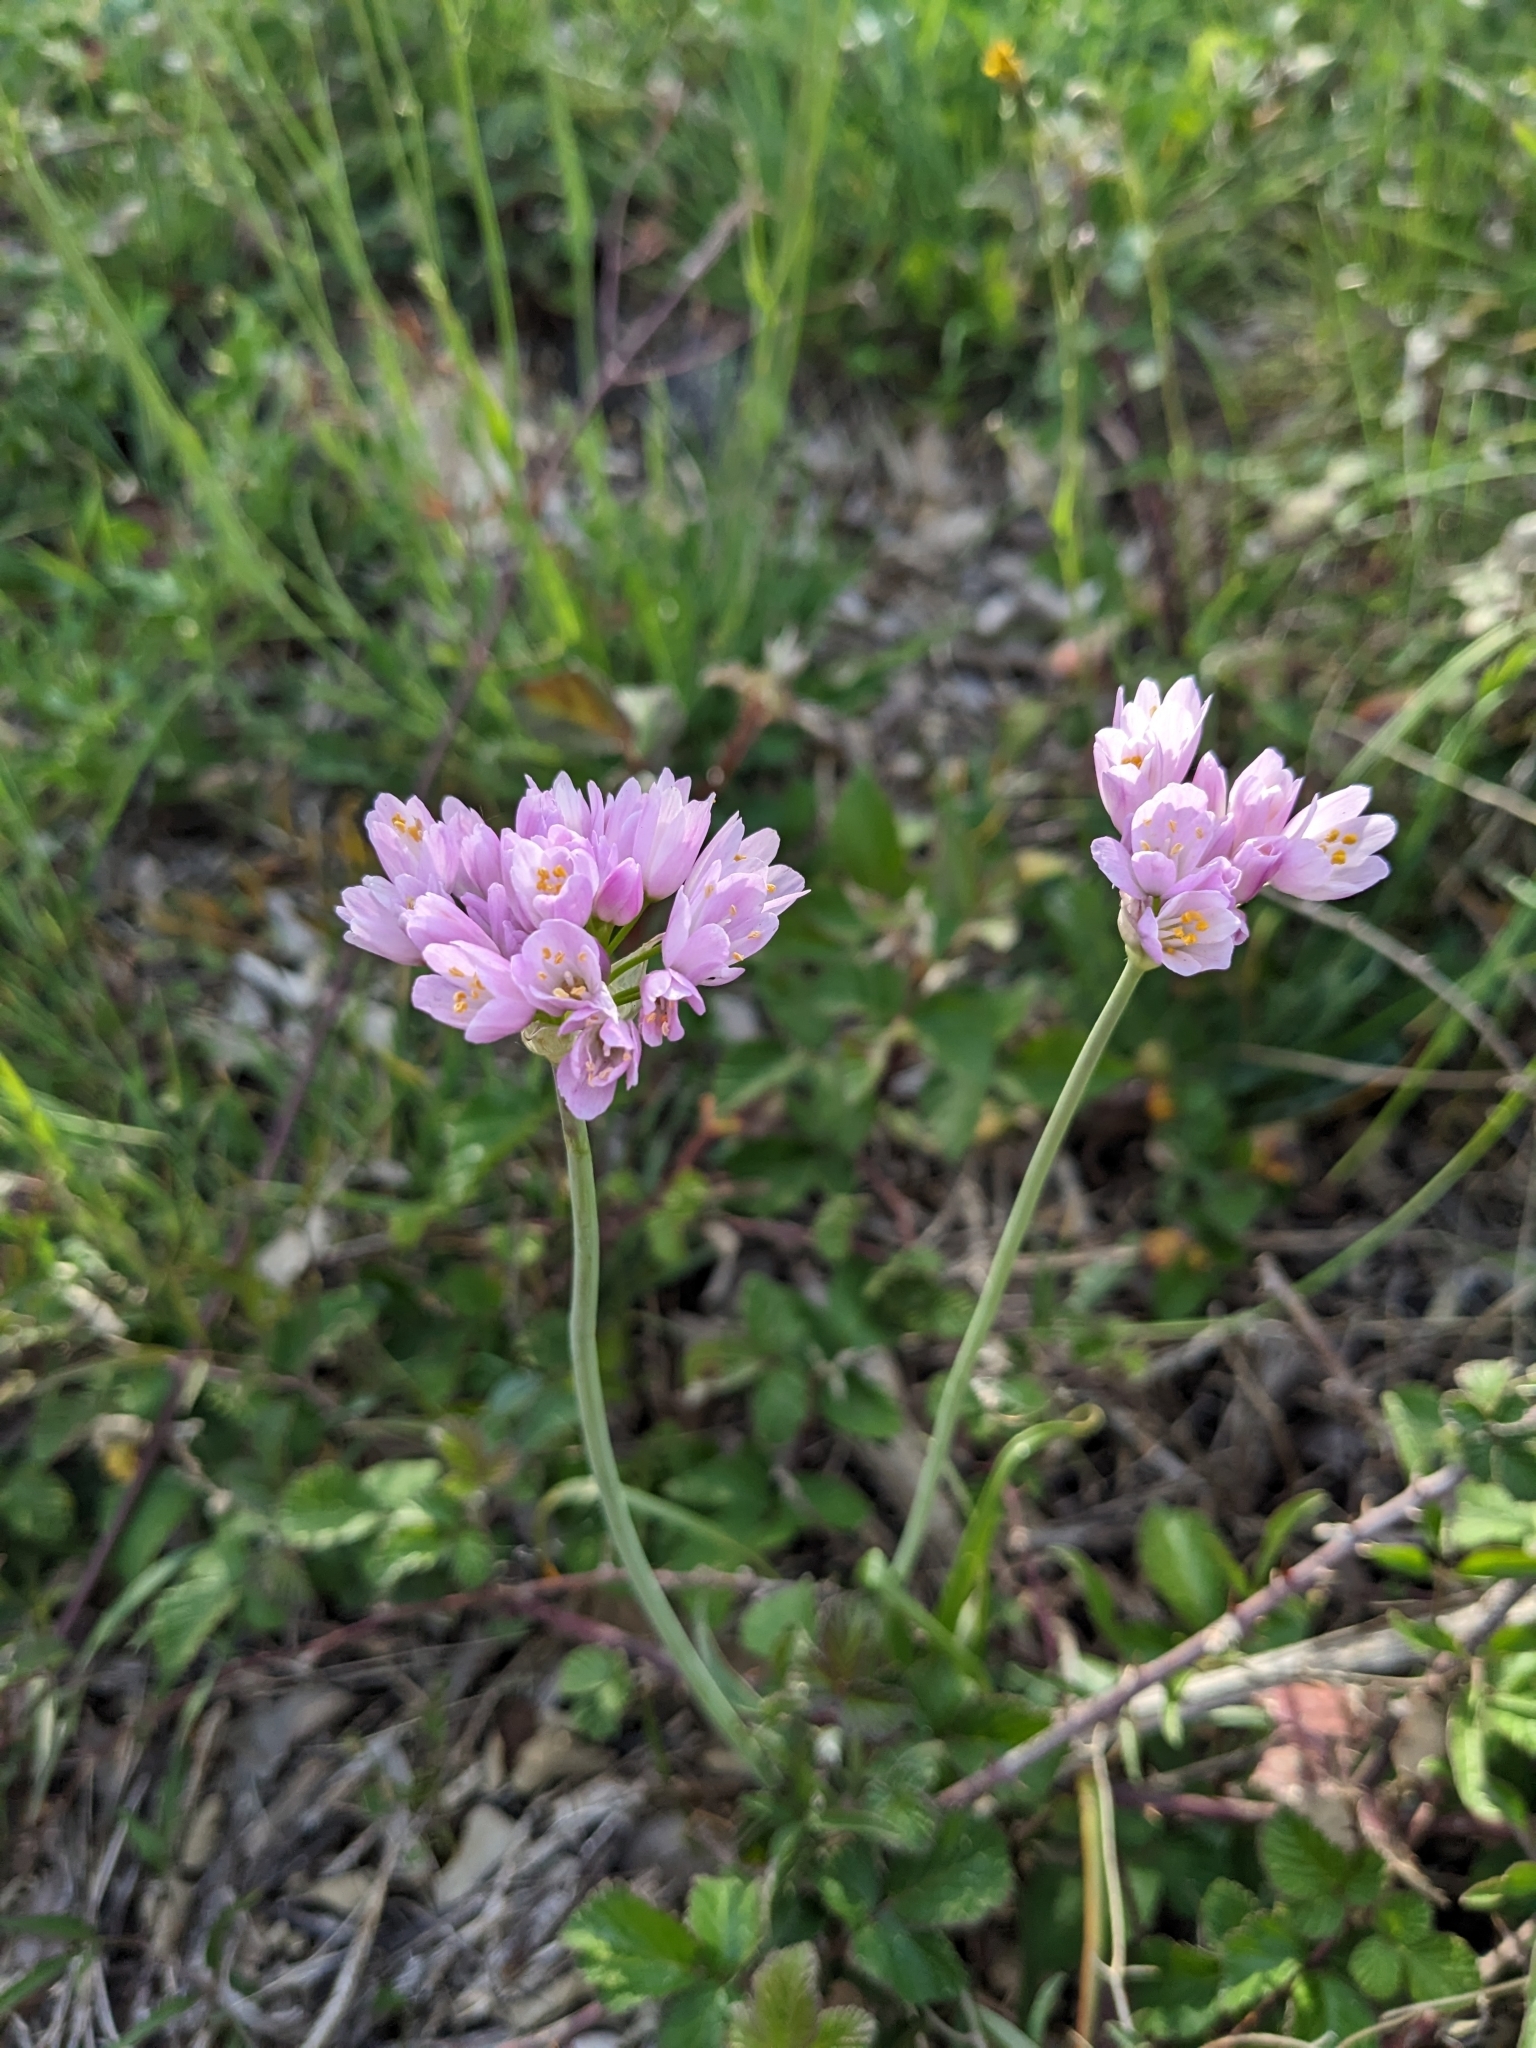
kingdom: Plantae
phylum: Tracheophyta
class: Liliopsida
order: Asparagales
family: Amaryllidaceae
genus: Allium
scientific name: Allium roseum
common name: Rosy garlic
